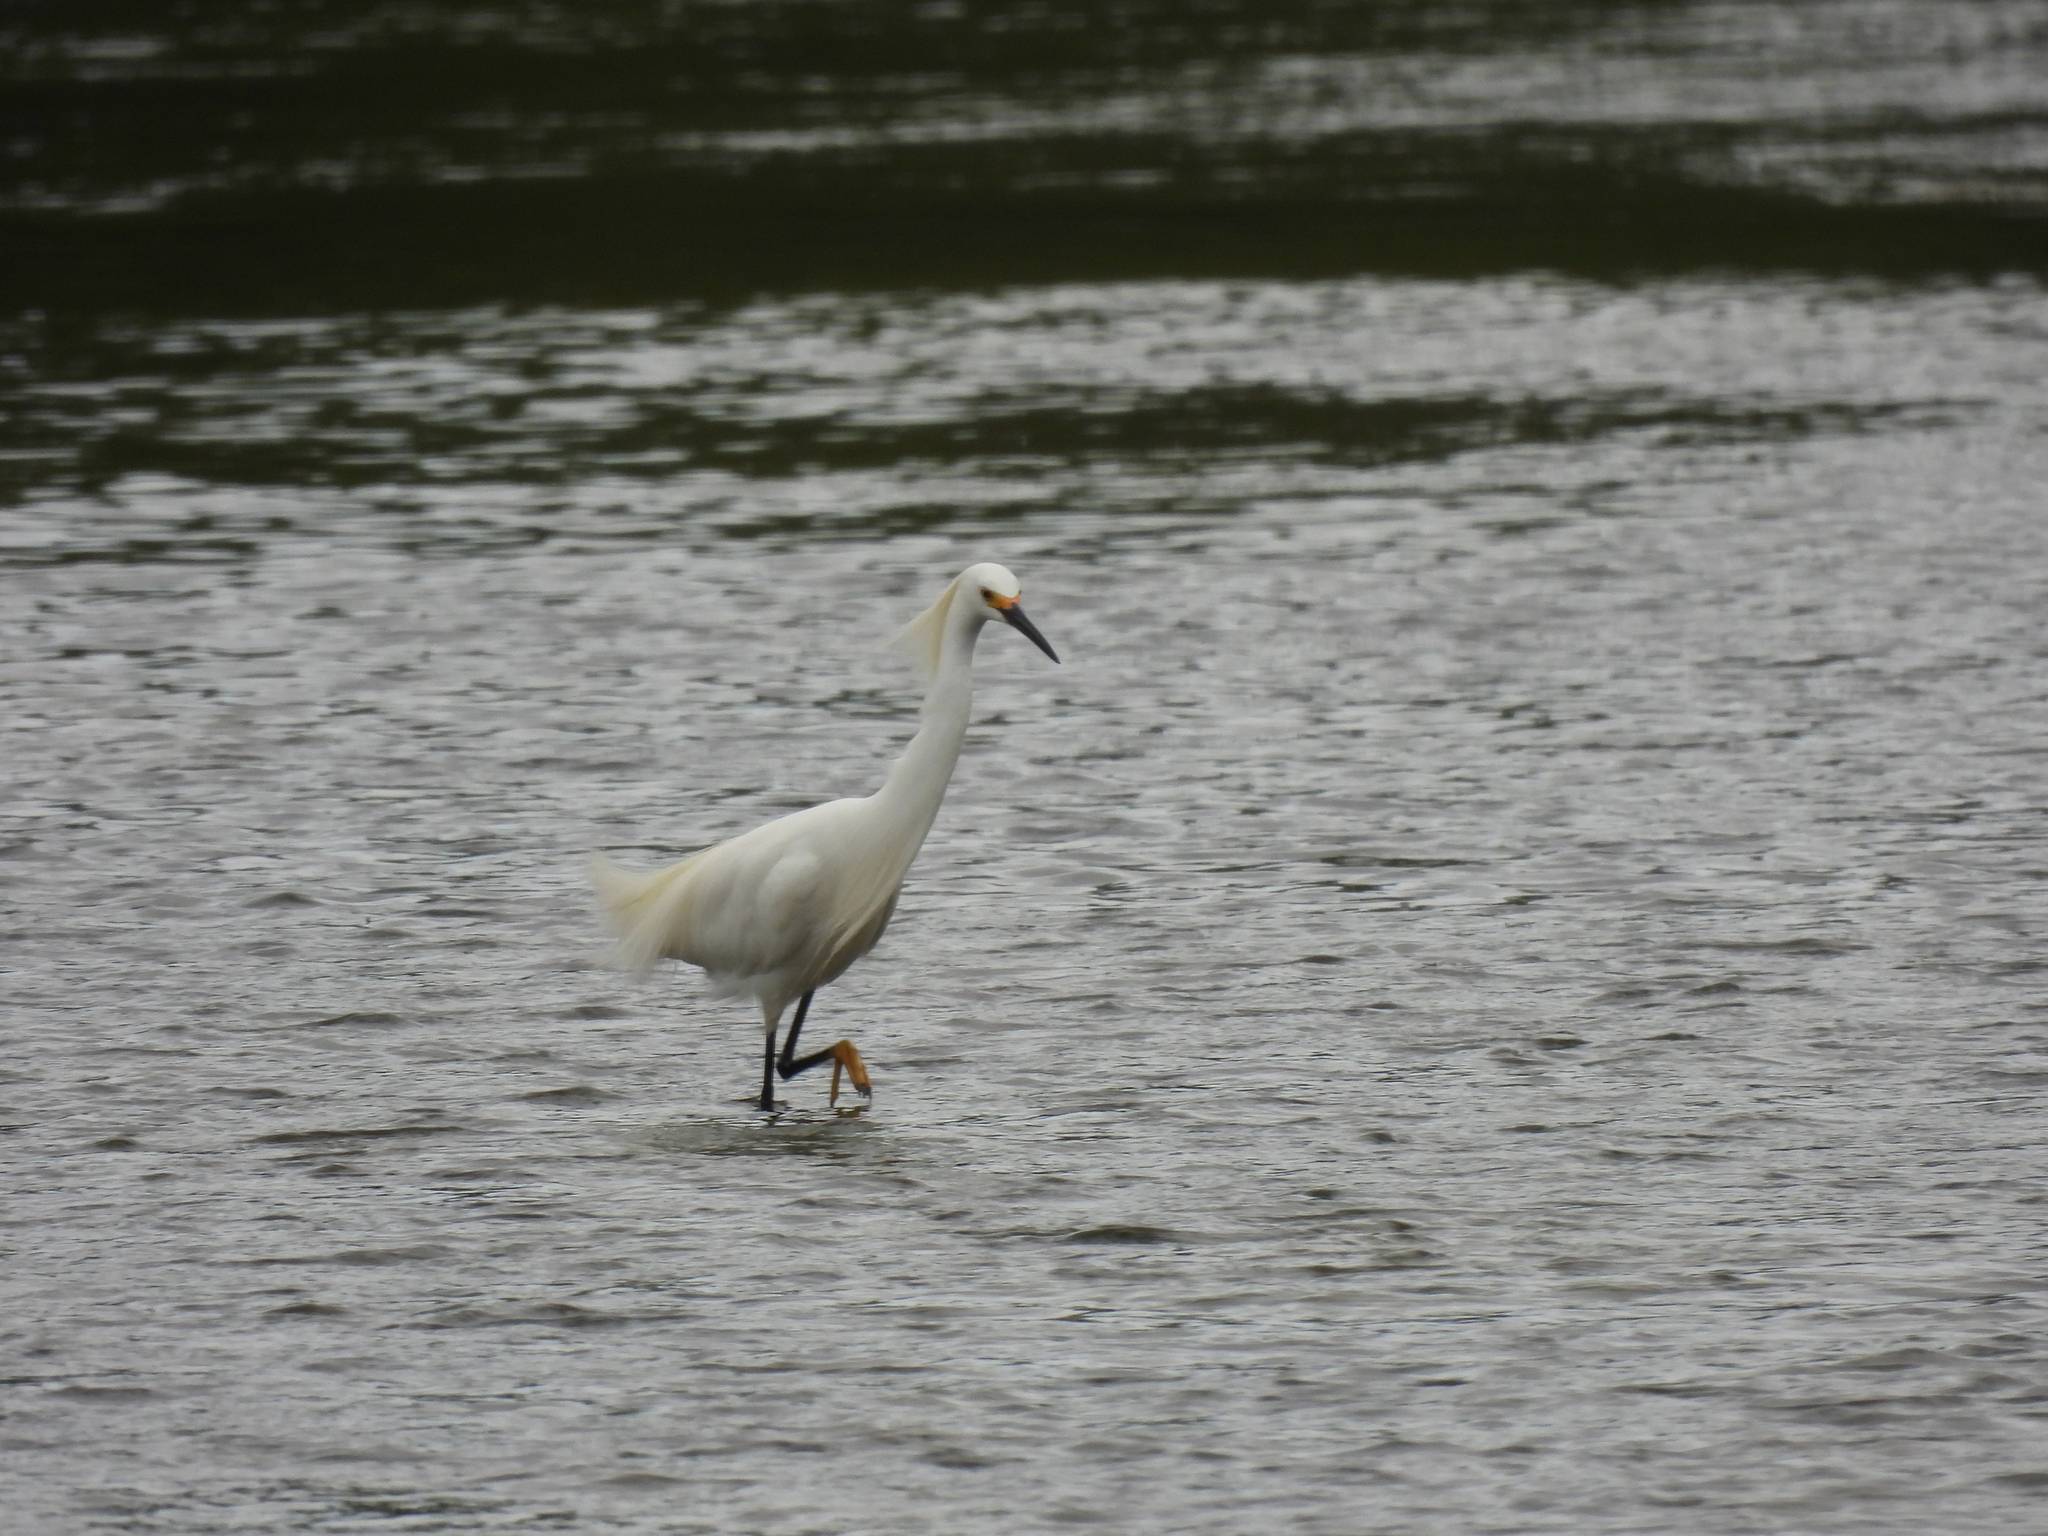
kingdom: Animalia
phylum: Chordata
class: Aves
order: Pelecaniformes
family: Ardeidae
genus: Egretta
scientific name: Egretta thula
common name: Snowy egret
